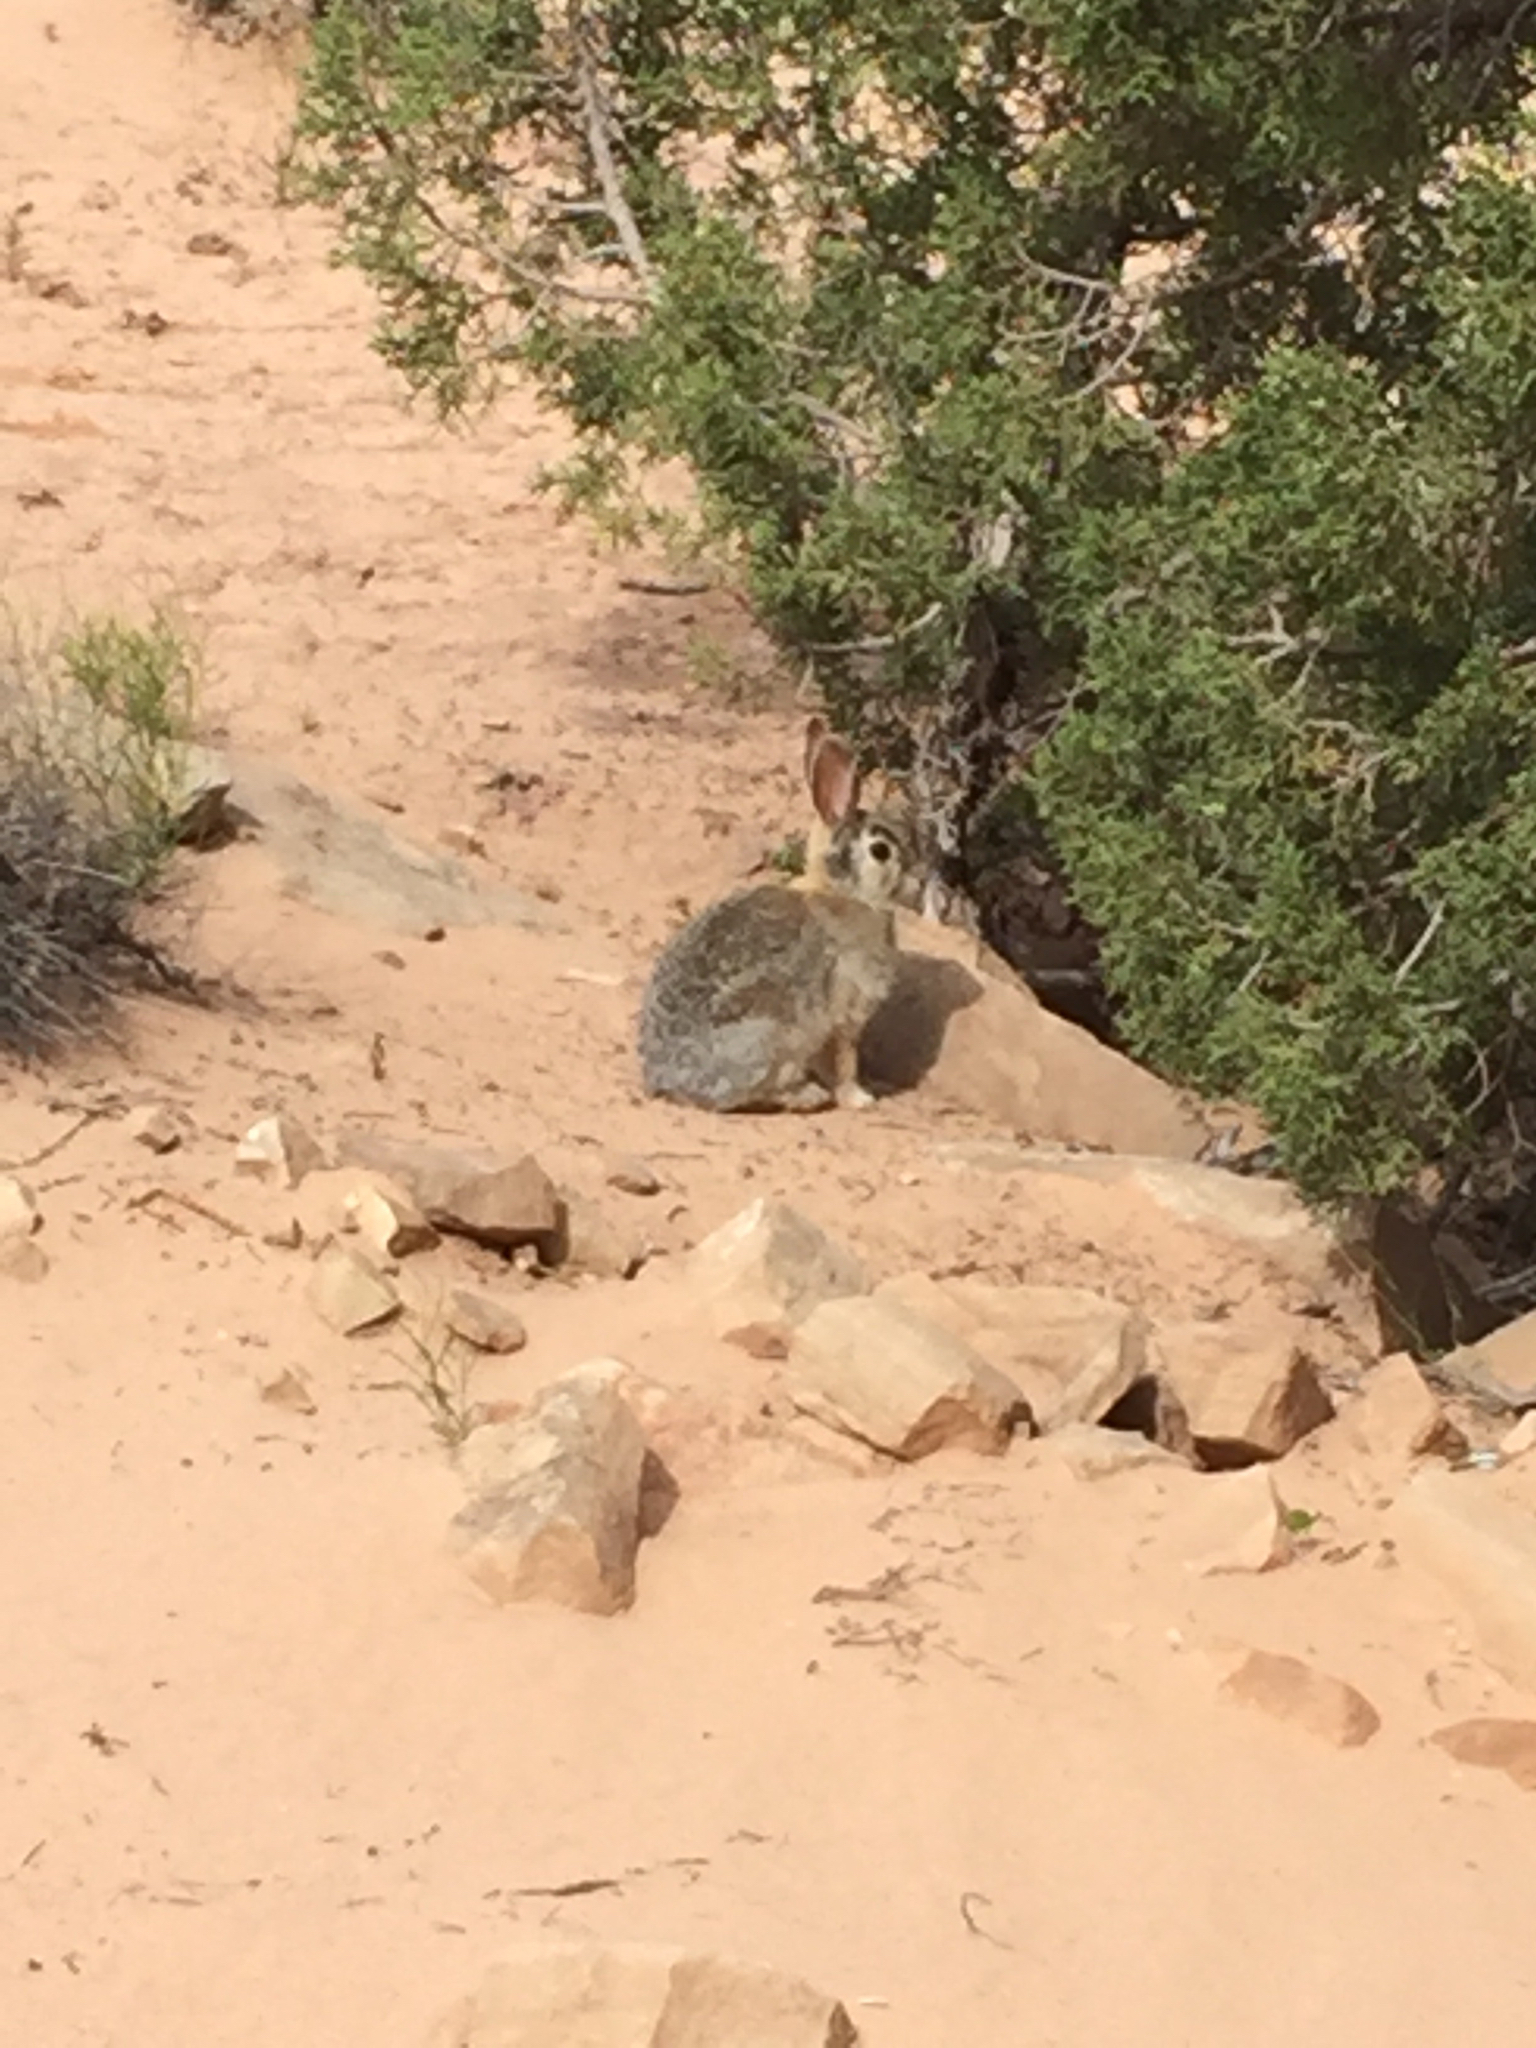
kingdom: Animalia
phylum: Chordata
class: Mammalia
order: Lagomorpha
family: Leporidae
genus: Sylvilagus
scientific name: Sylvilagus audubonii
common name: Desert cottontail
